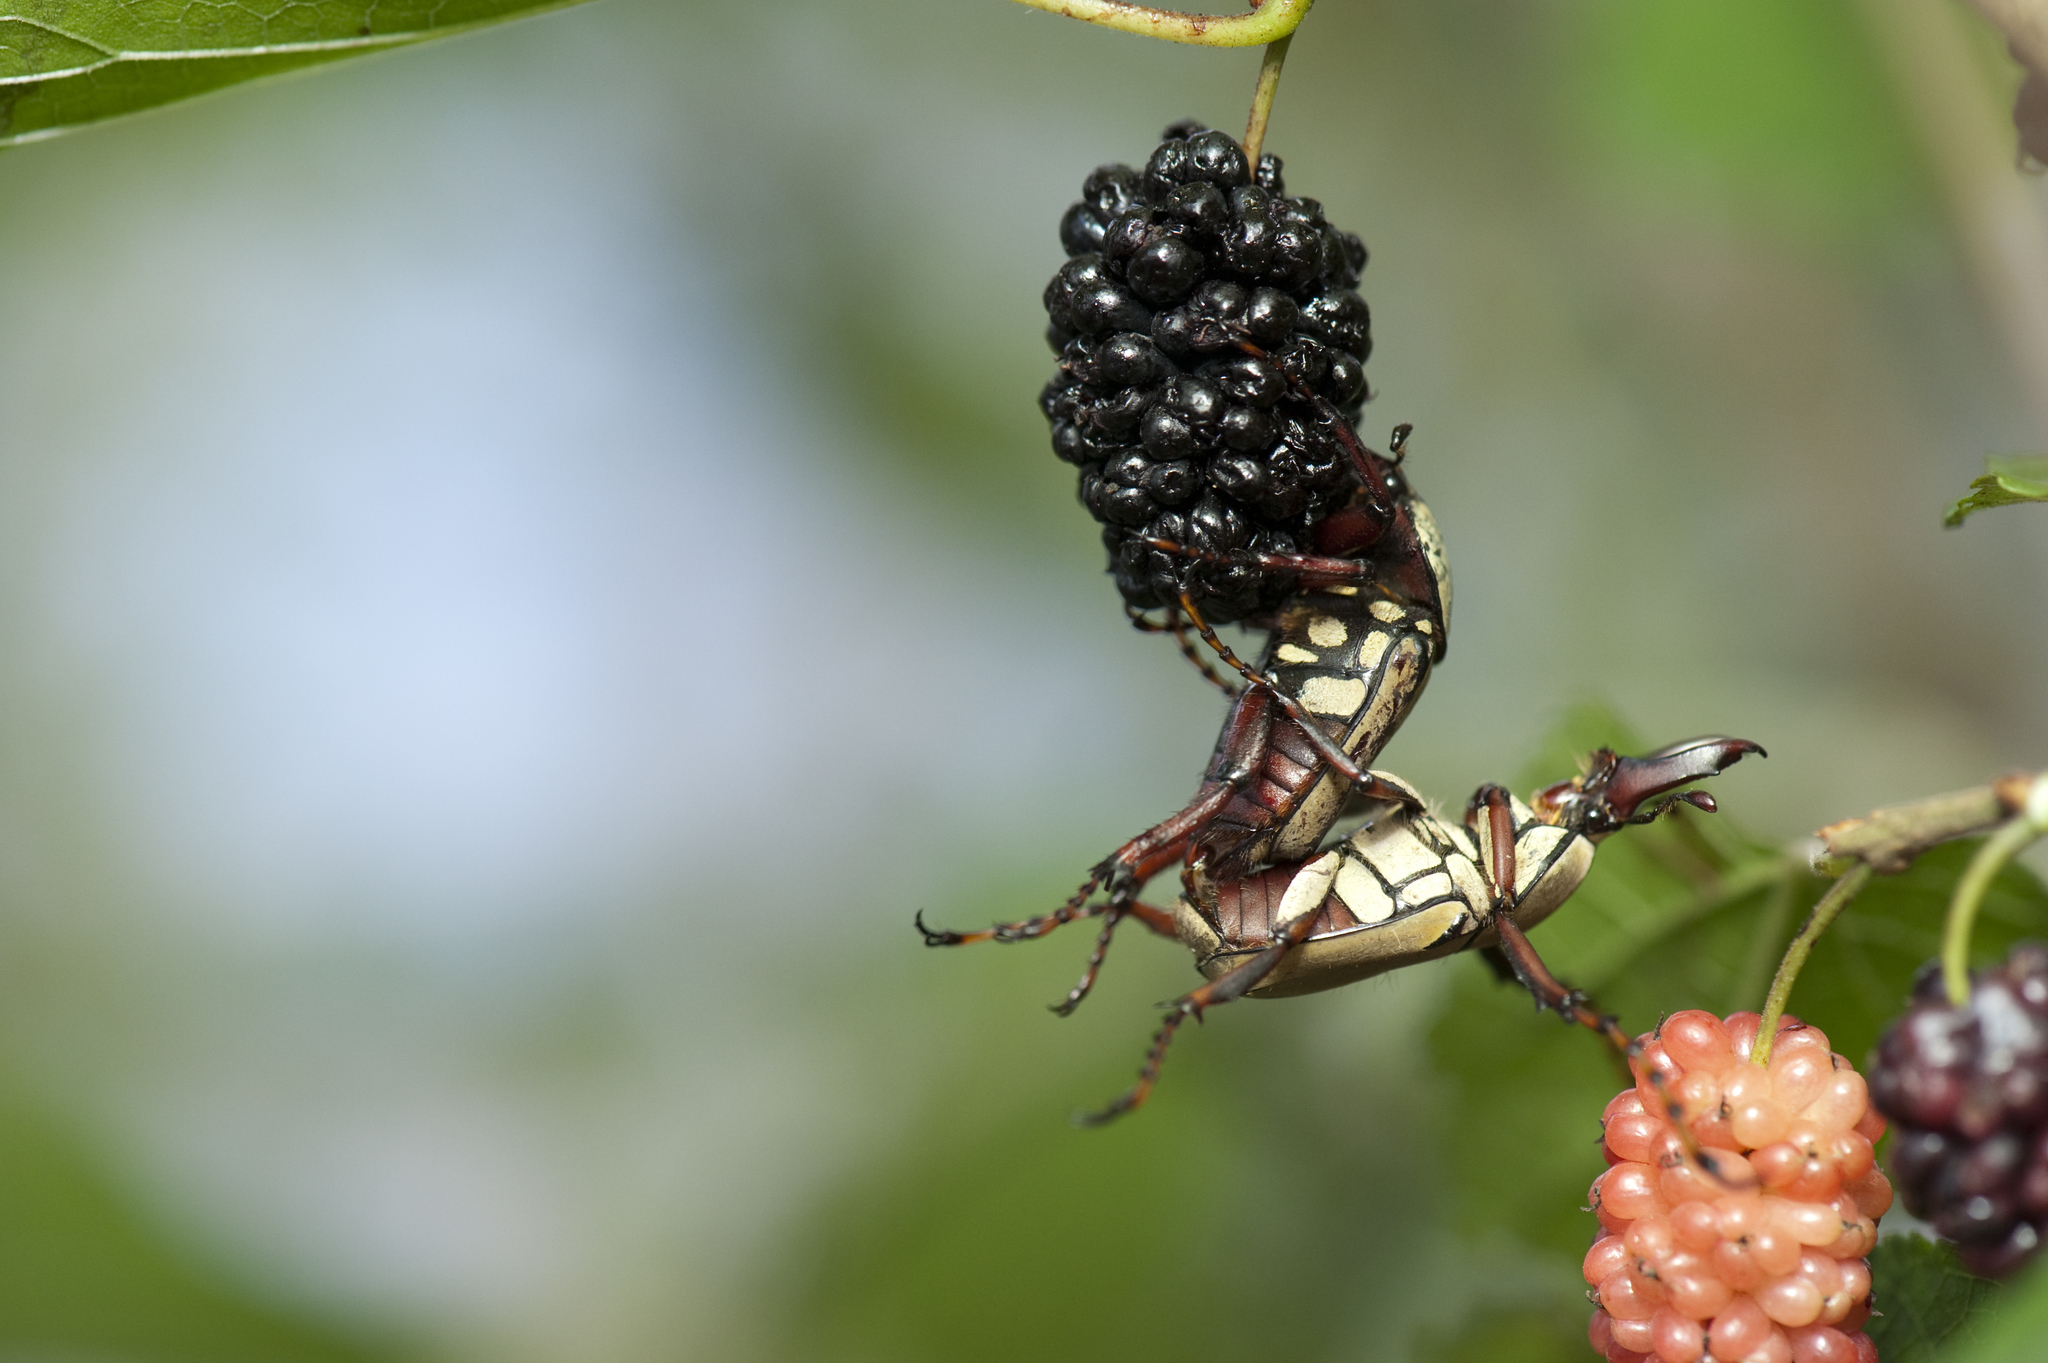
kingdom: Animalia
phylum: Arthropoda
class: Insecta
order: Coleoptera
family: Scarabaeidae
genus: Dicronocephalus
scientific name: Dicronocephalus bourgoini
